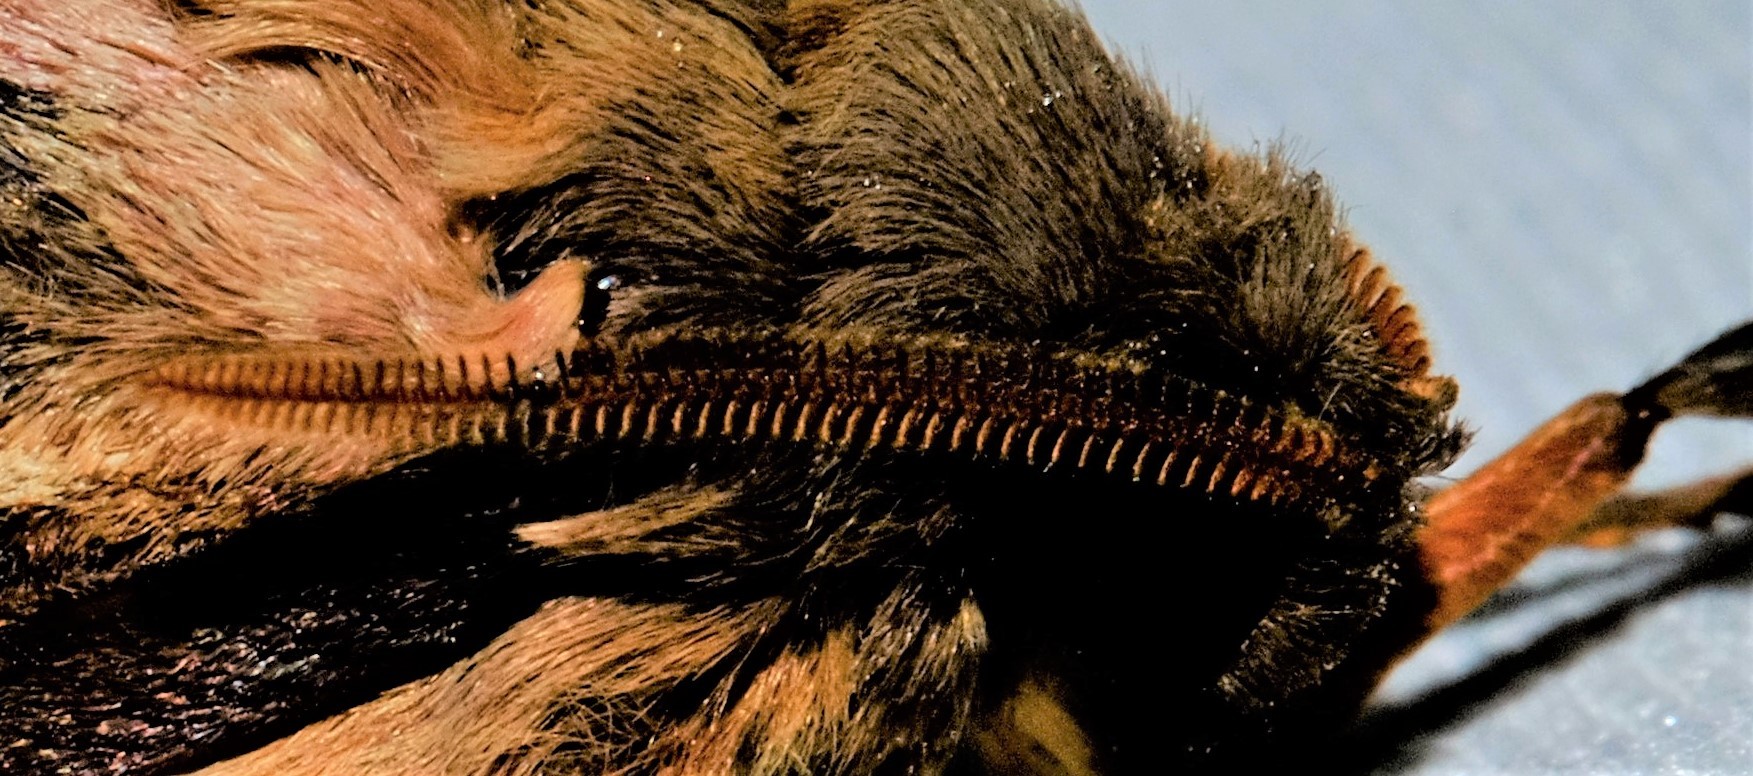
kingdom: Animalia
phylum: Arthropoda
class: Insecta
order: Lepidoptera
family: Hepialidae
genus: Oxycanus
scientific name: Oxycanus australis
